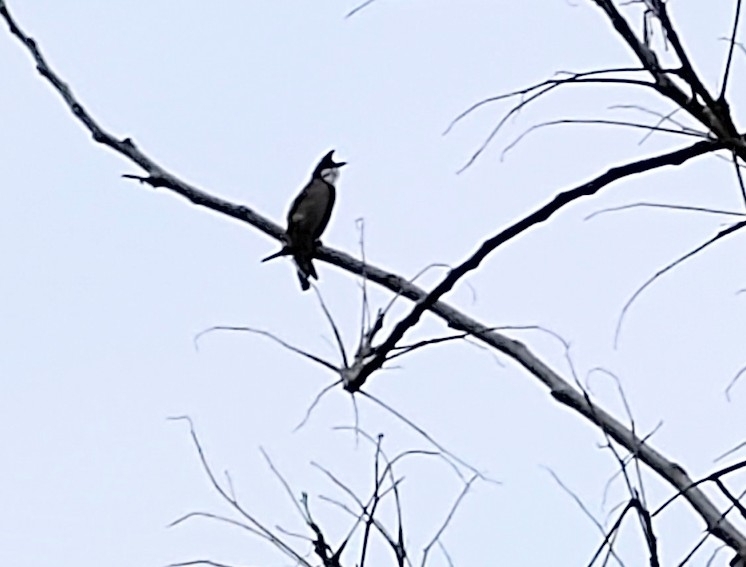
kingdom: Animalia
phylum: Chordata
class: Aves
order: Passeriformes
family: Pycnonotidae
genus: Pycnonotus
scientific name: Pycnonotus jocosus
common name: Red-whiskered bulbul
